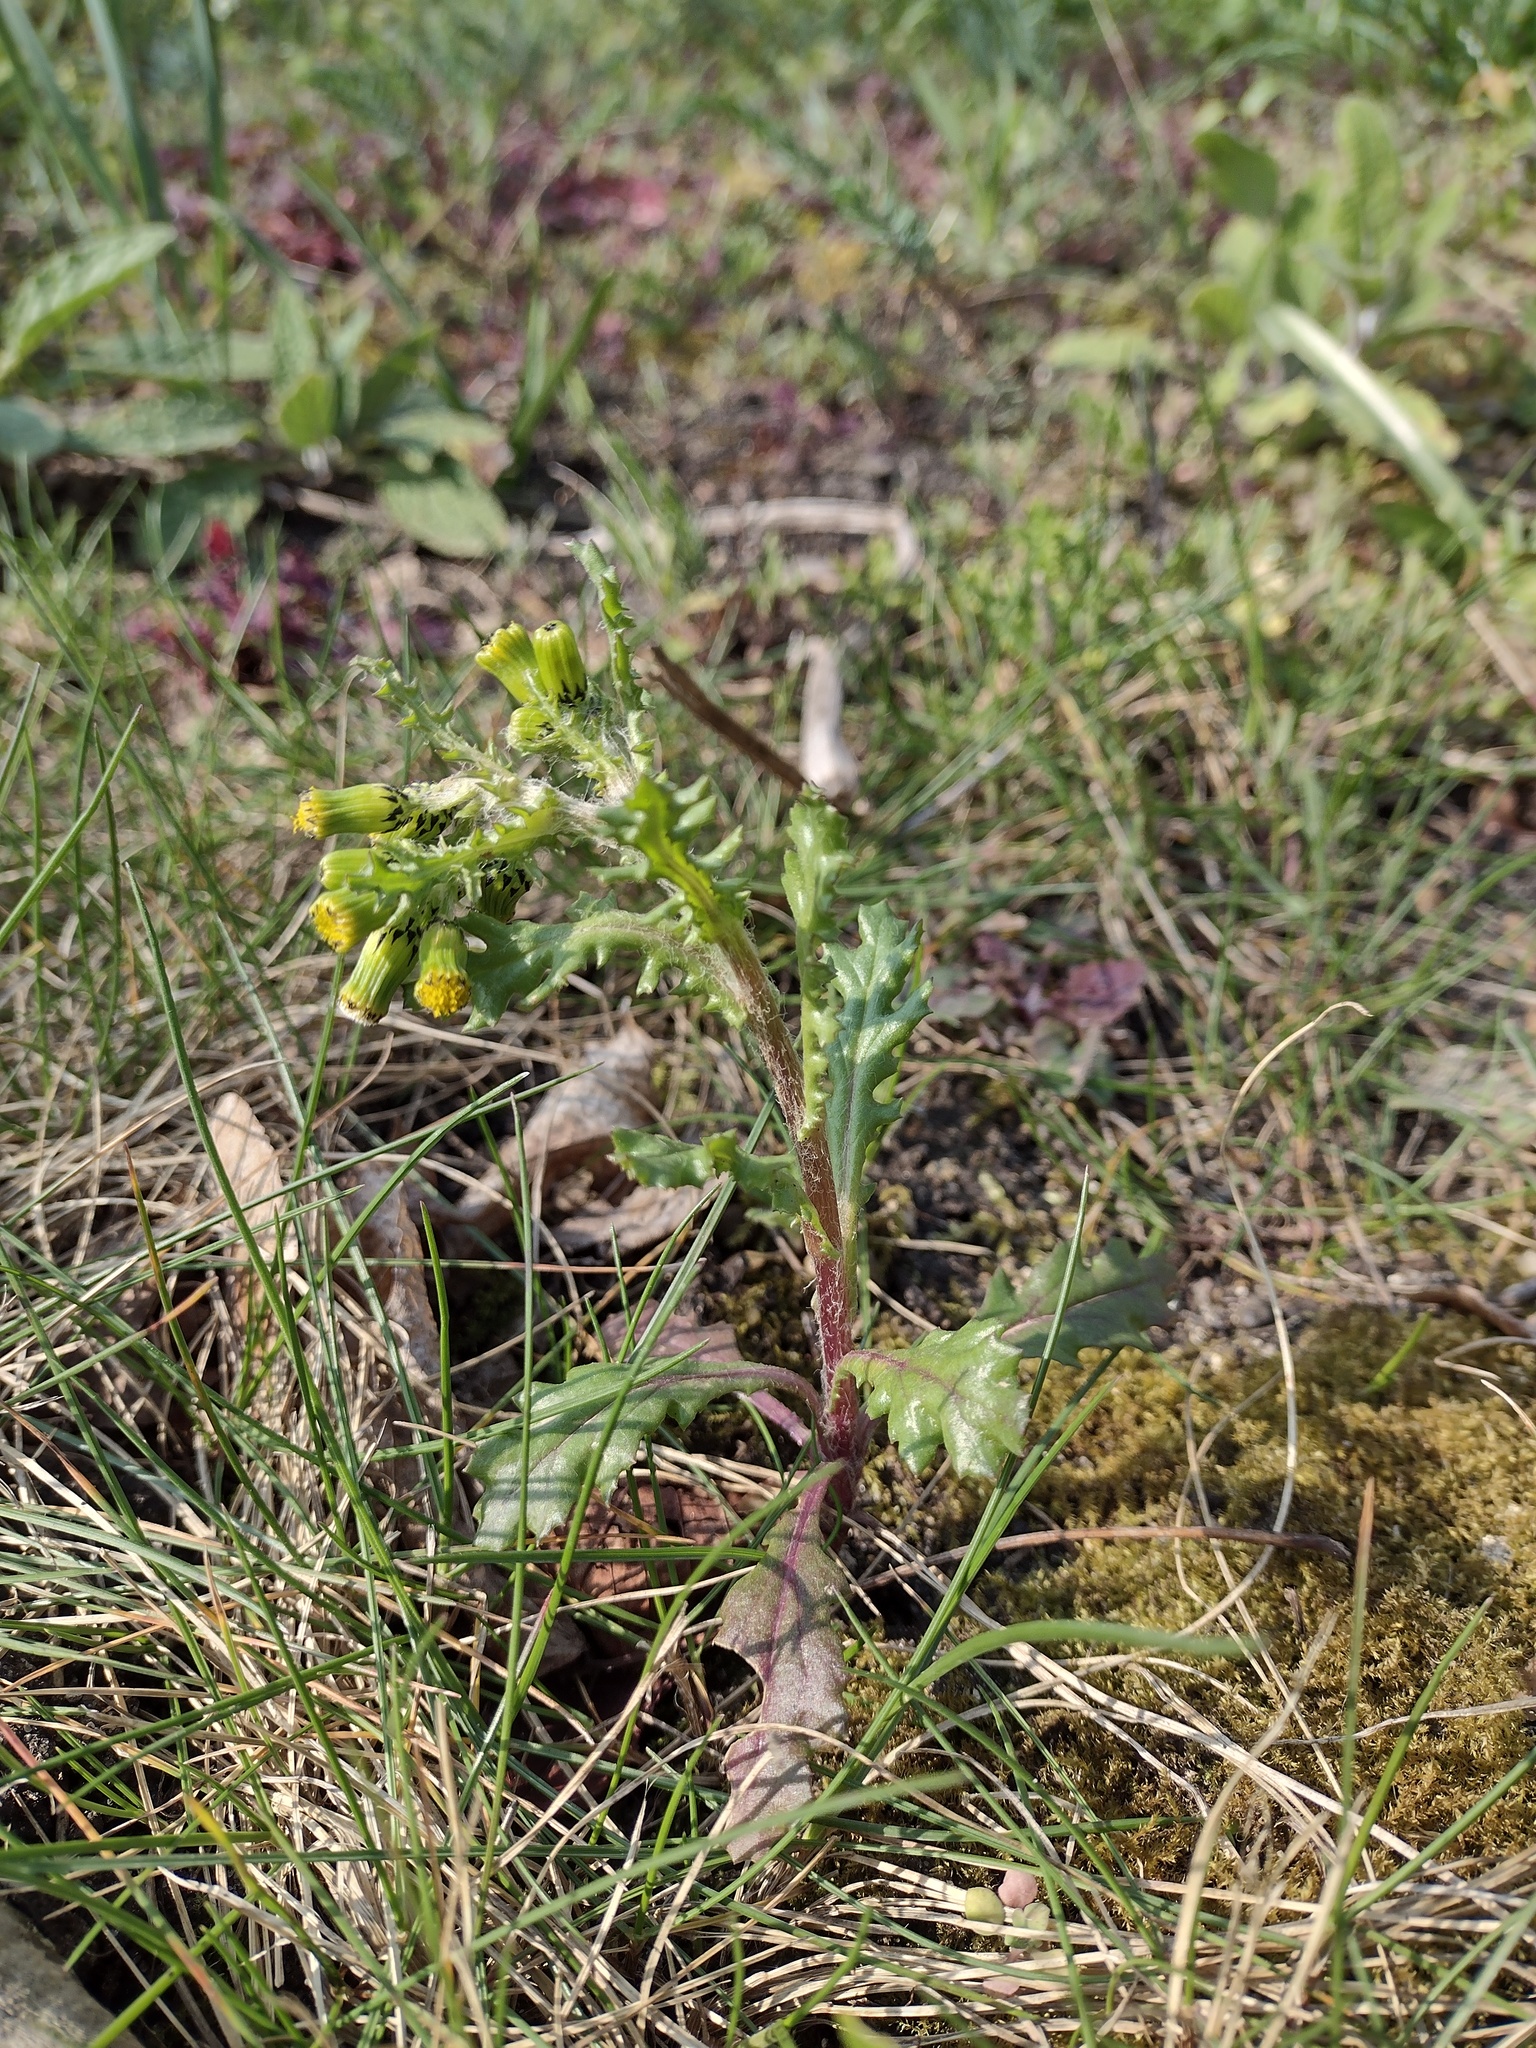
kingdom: Plantae
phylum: Tracheophyta
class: Magnoliopsida
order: Asterales
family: Asteraceae
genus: Senecio
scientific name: Senecio vulgaris
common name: Old-man-in-the-spring
